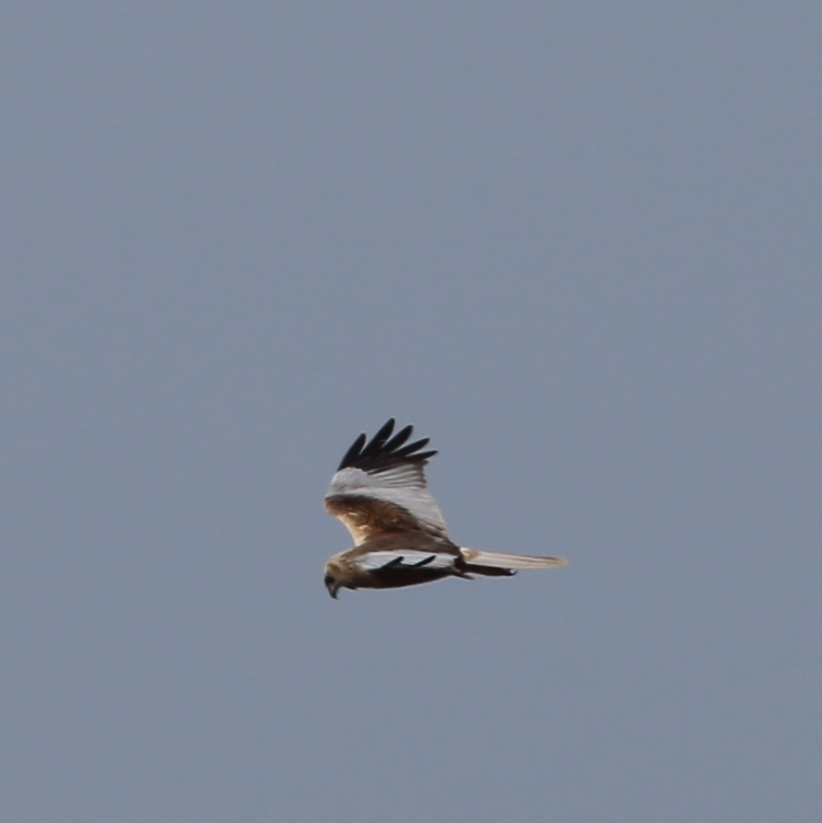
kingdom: Animalia
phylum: Chordata
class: Aves
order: Accipitriformes
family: Accipitridae
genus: Circus
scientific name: Circus aeruginosus
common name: Western marsh harrier
